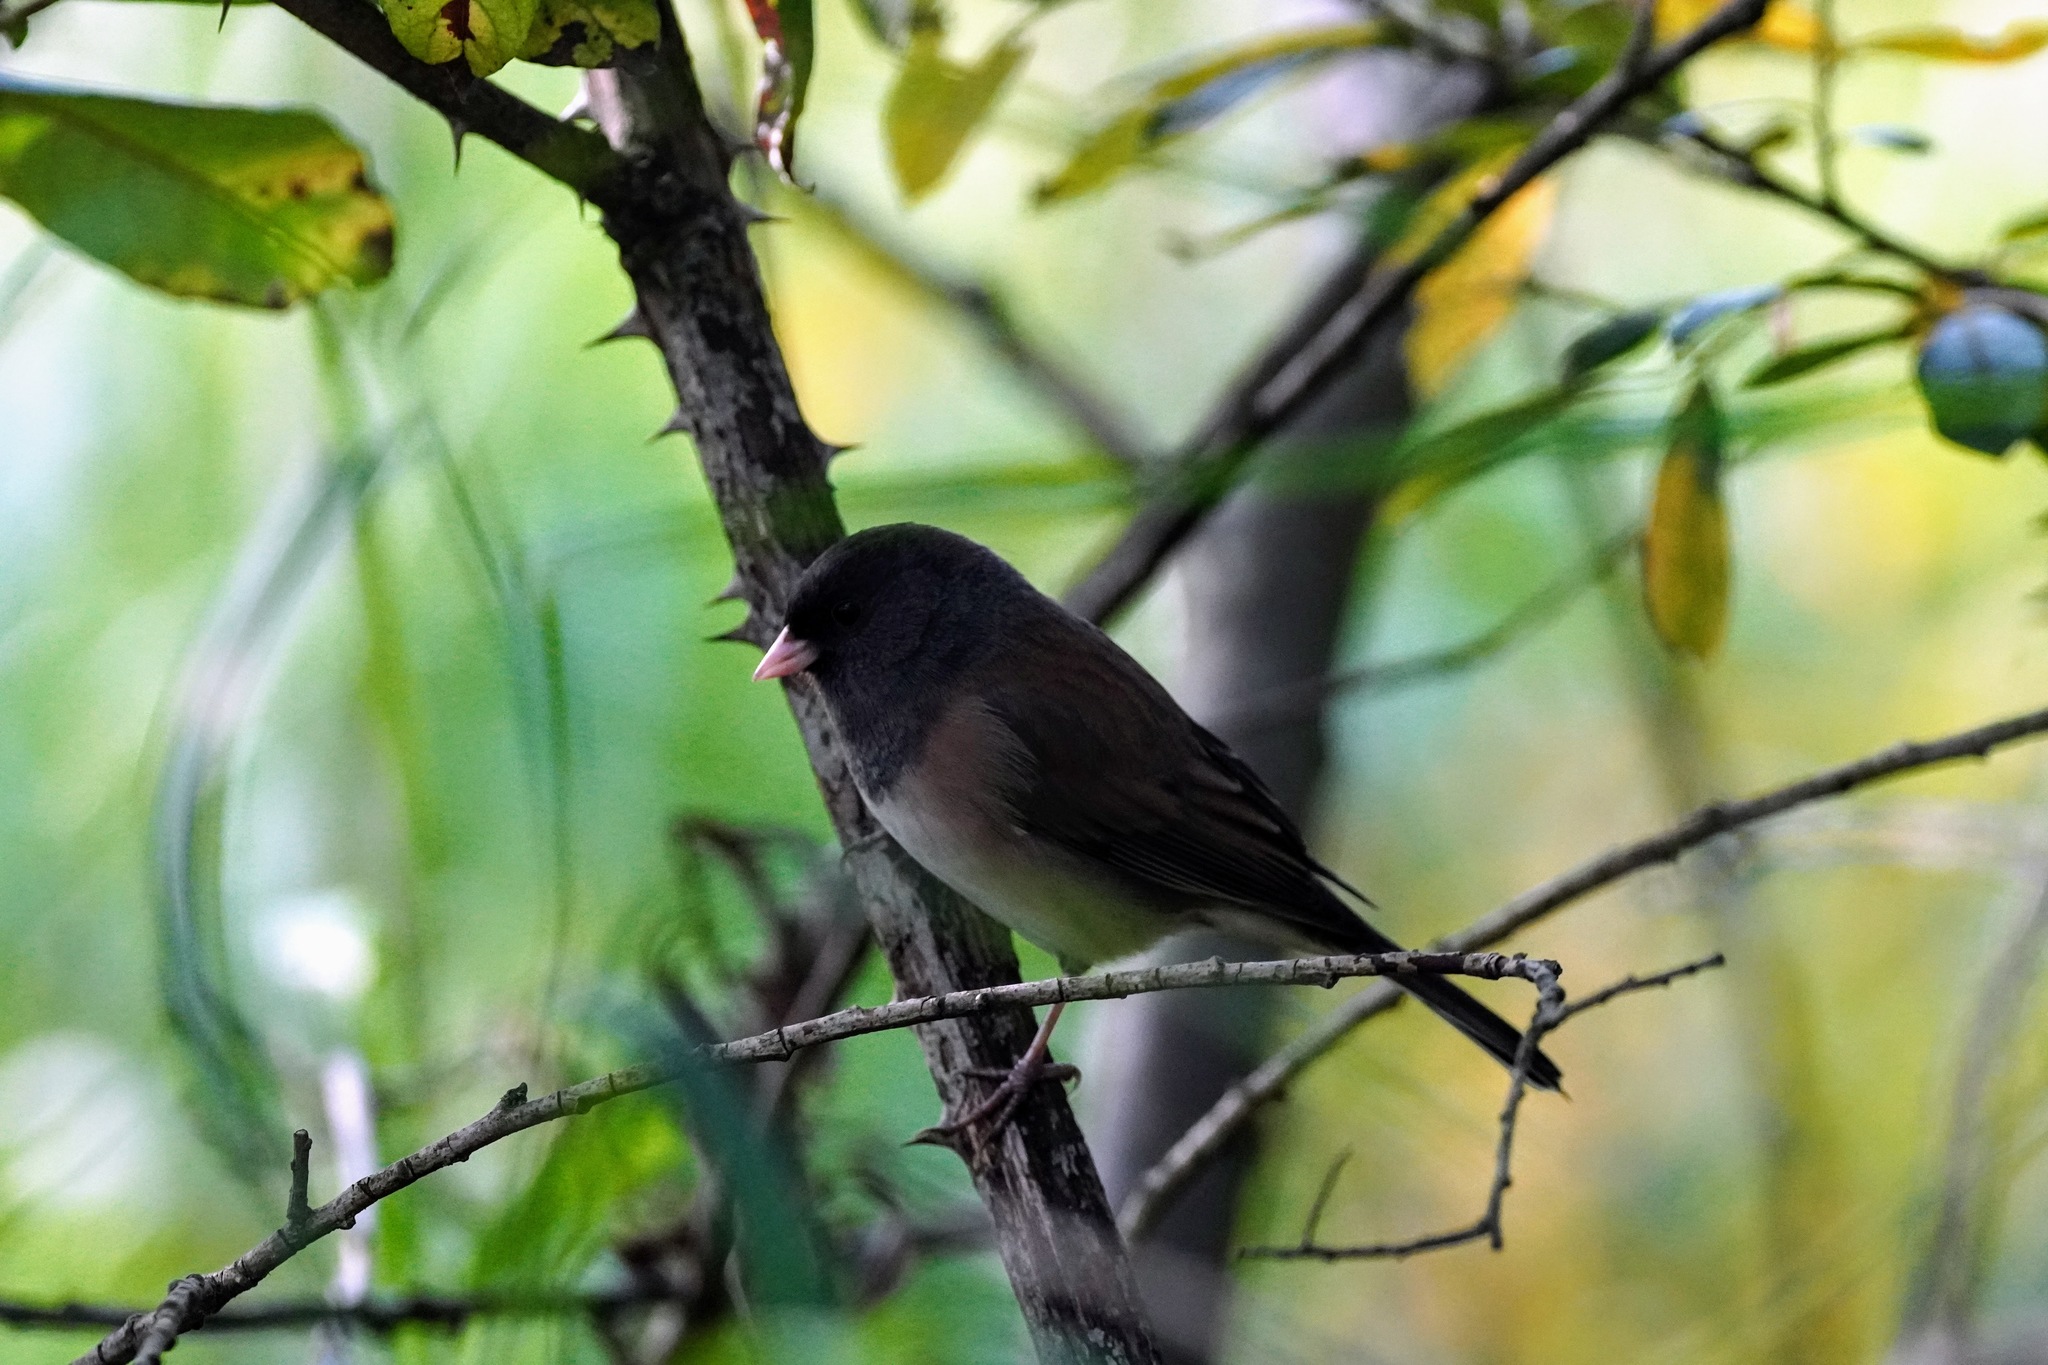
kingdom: Animalia
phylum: Chordata
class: Aves
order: Passeriformes
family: Passerellidae
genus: Junco
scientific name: Junco hyemalis
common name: Dark-eyed junco
